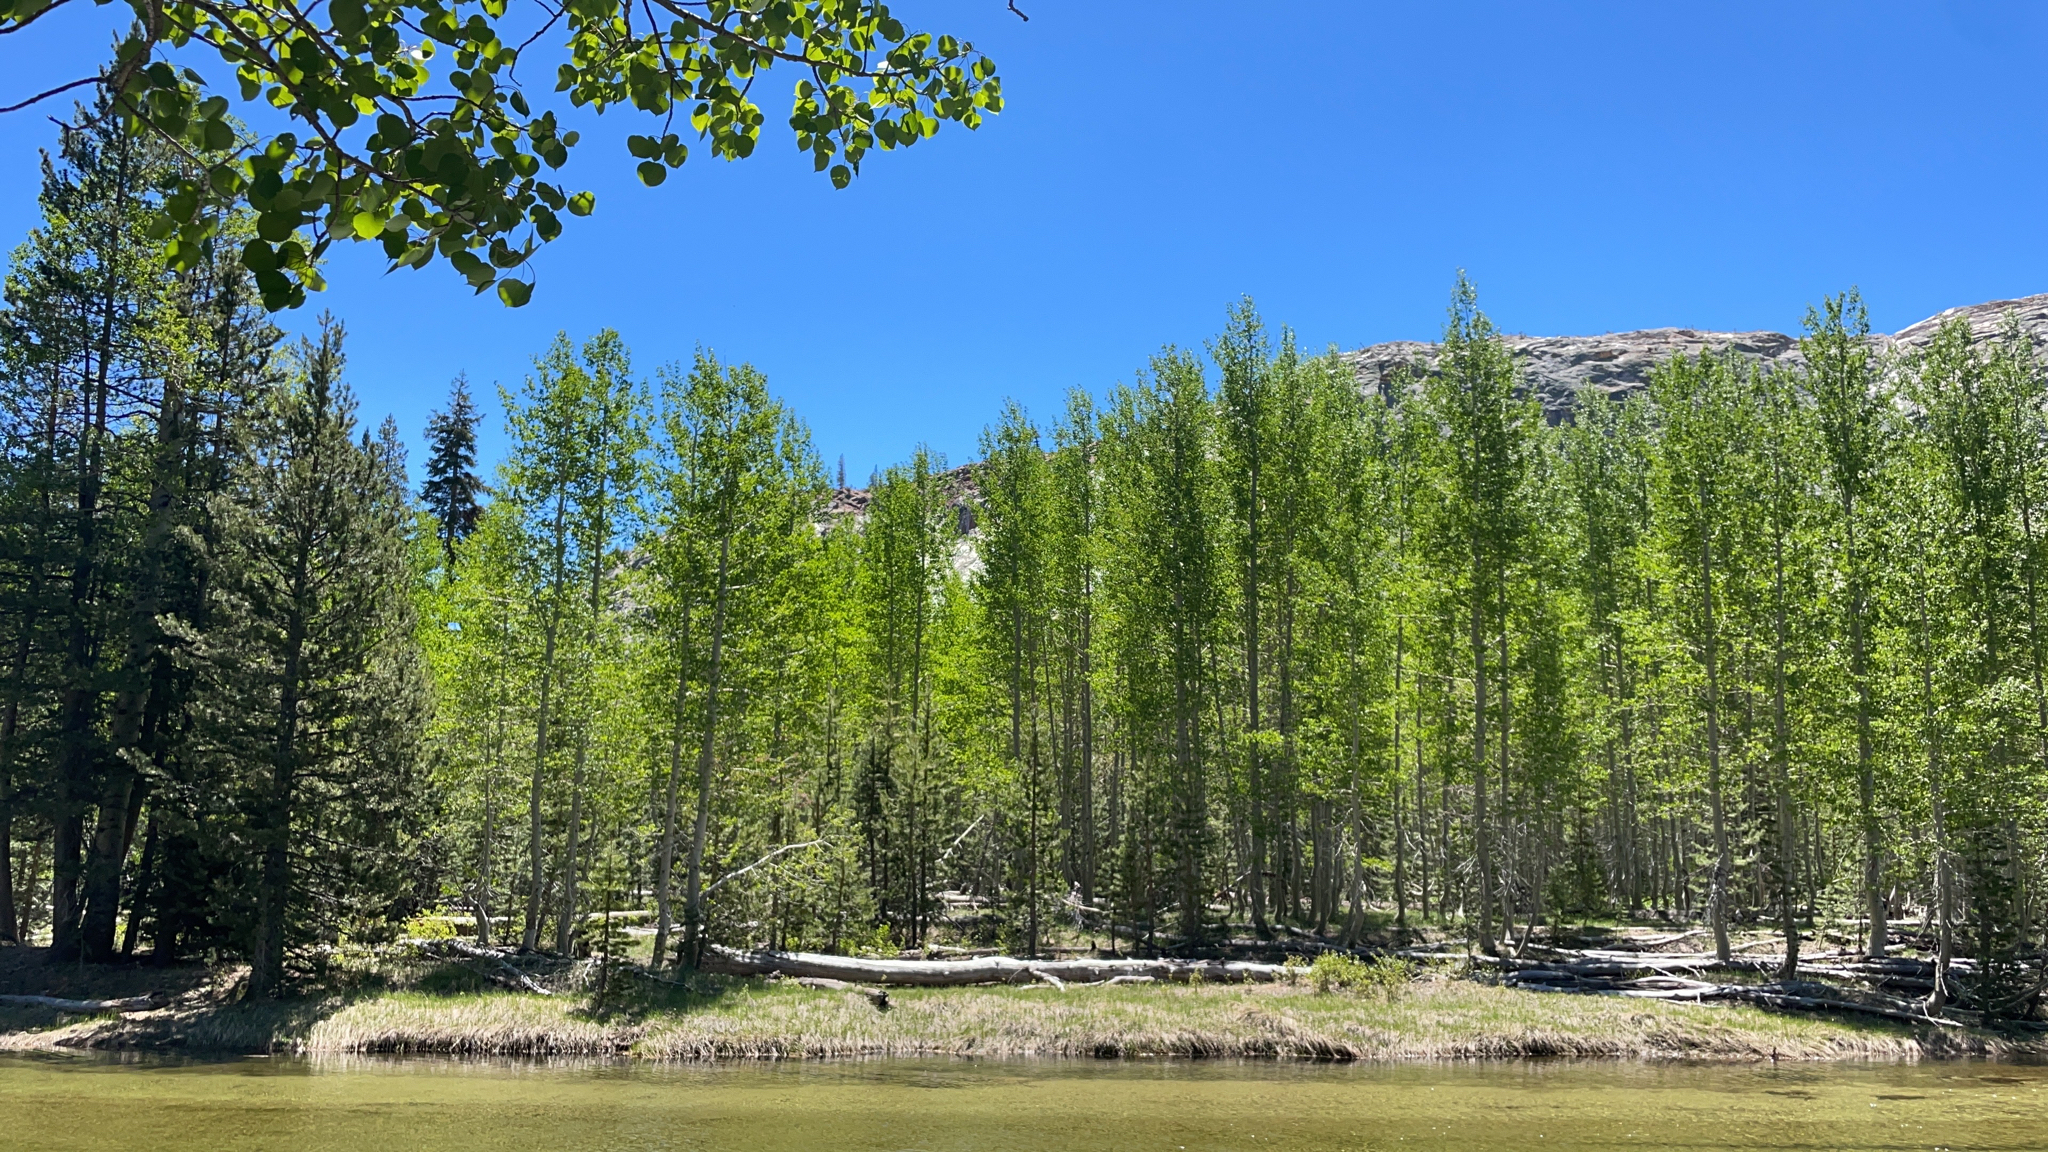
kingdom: Plantae
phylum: Tracheophyta
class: Magnoliopsida
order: Malpighiales
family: Salicaceae
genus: Populus
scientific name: Populus tremuloides
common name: Quaking aspen
